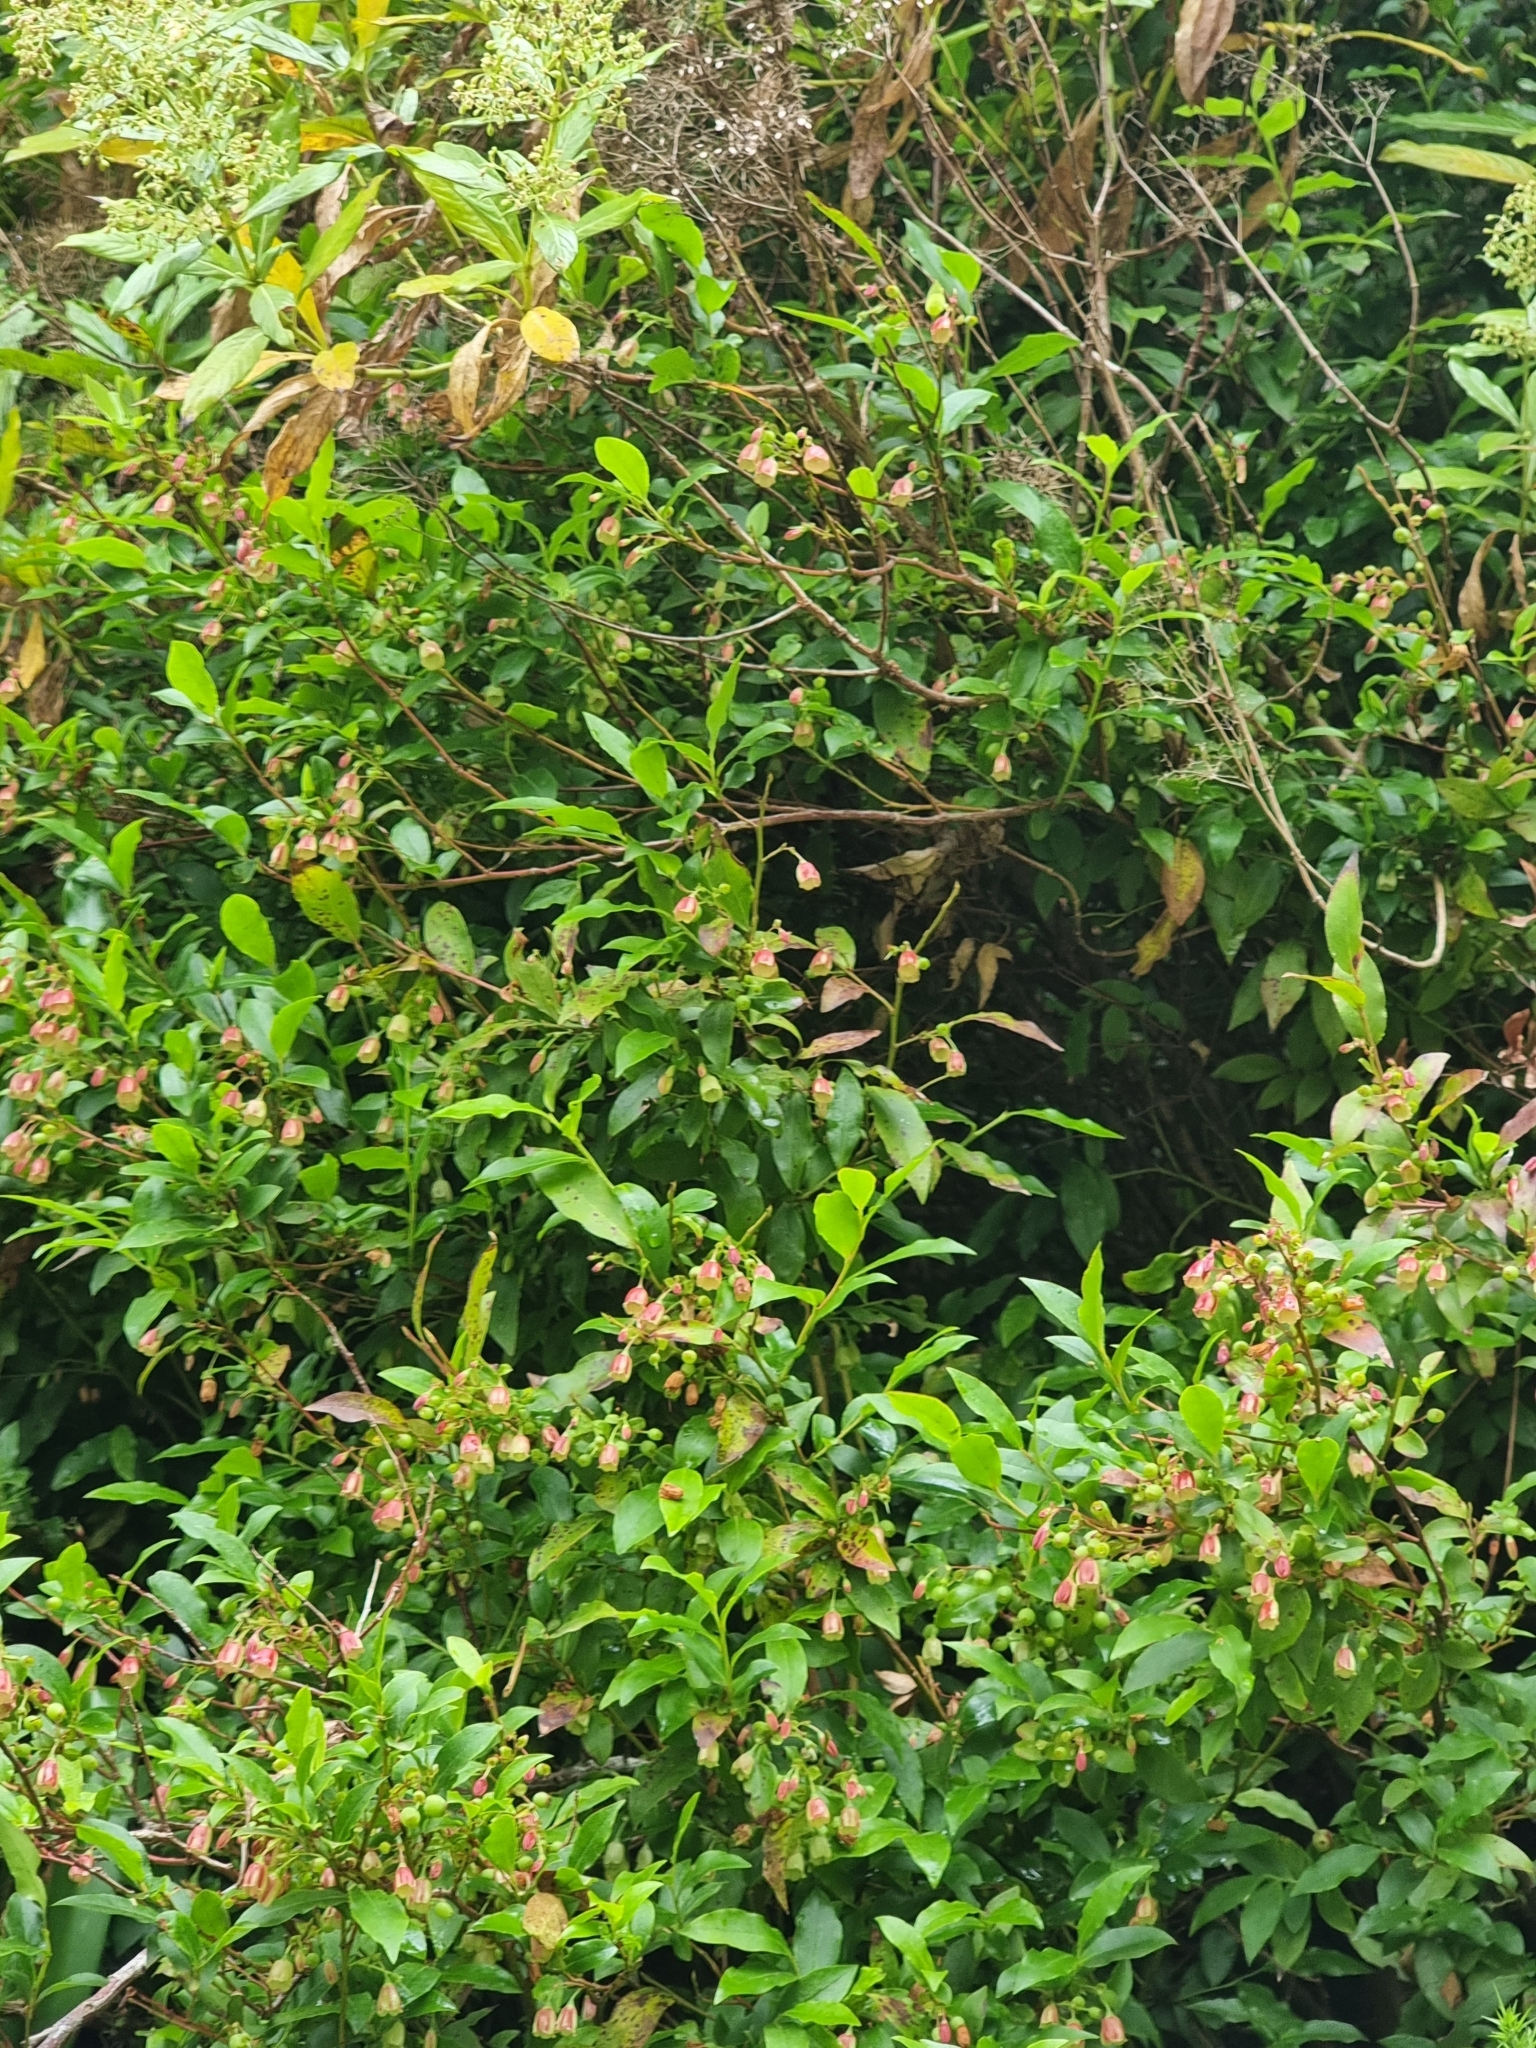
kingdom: Plantae
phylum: Tracheophyta
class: Magnoliopsida
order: Ericales
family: Ericaceae
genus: Vaccinium
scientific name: Vaccinium padifolium
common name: Madeiran blueberry
